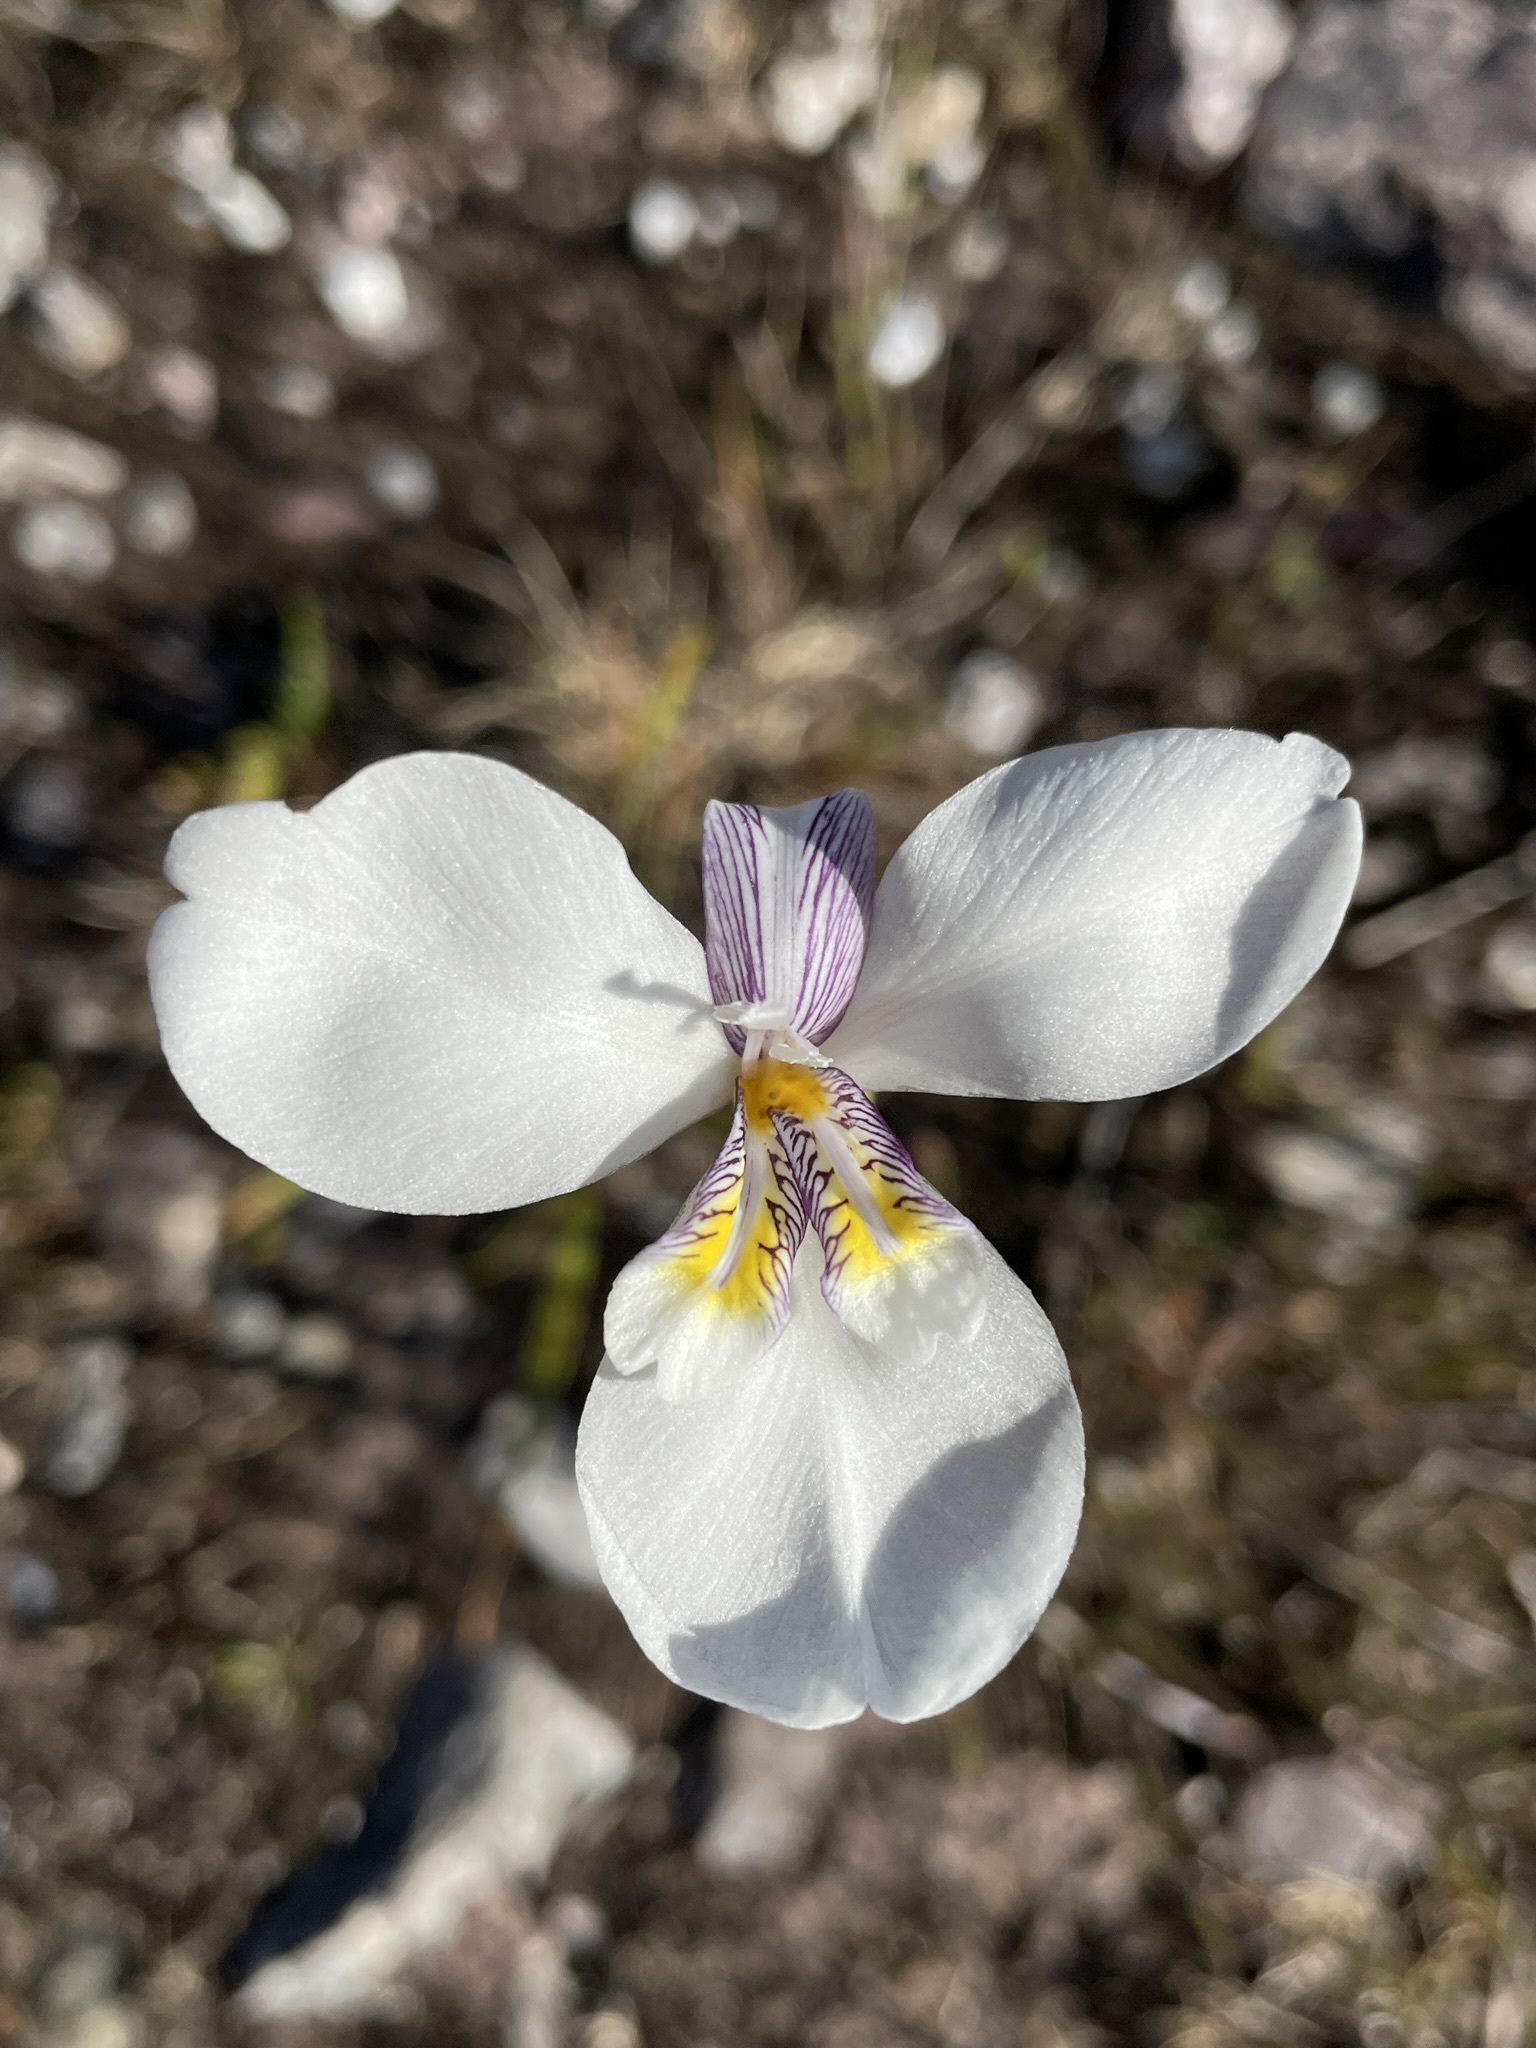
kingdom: Plantae
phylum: Tracheophyta
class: Liliopsida
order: Asparagales
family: Iridaceae
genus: Diplarrena
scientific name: Diplarrena latifolia
